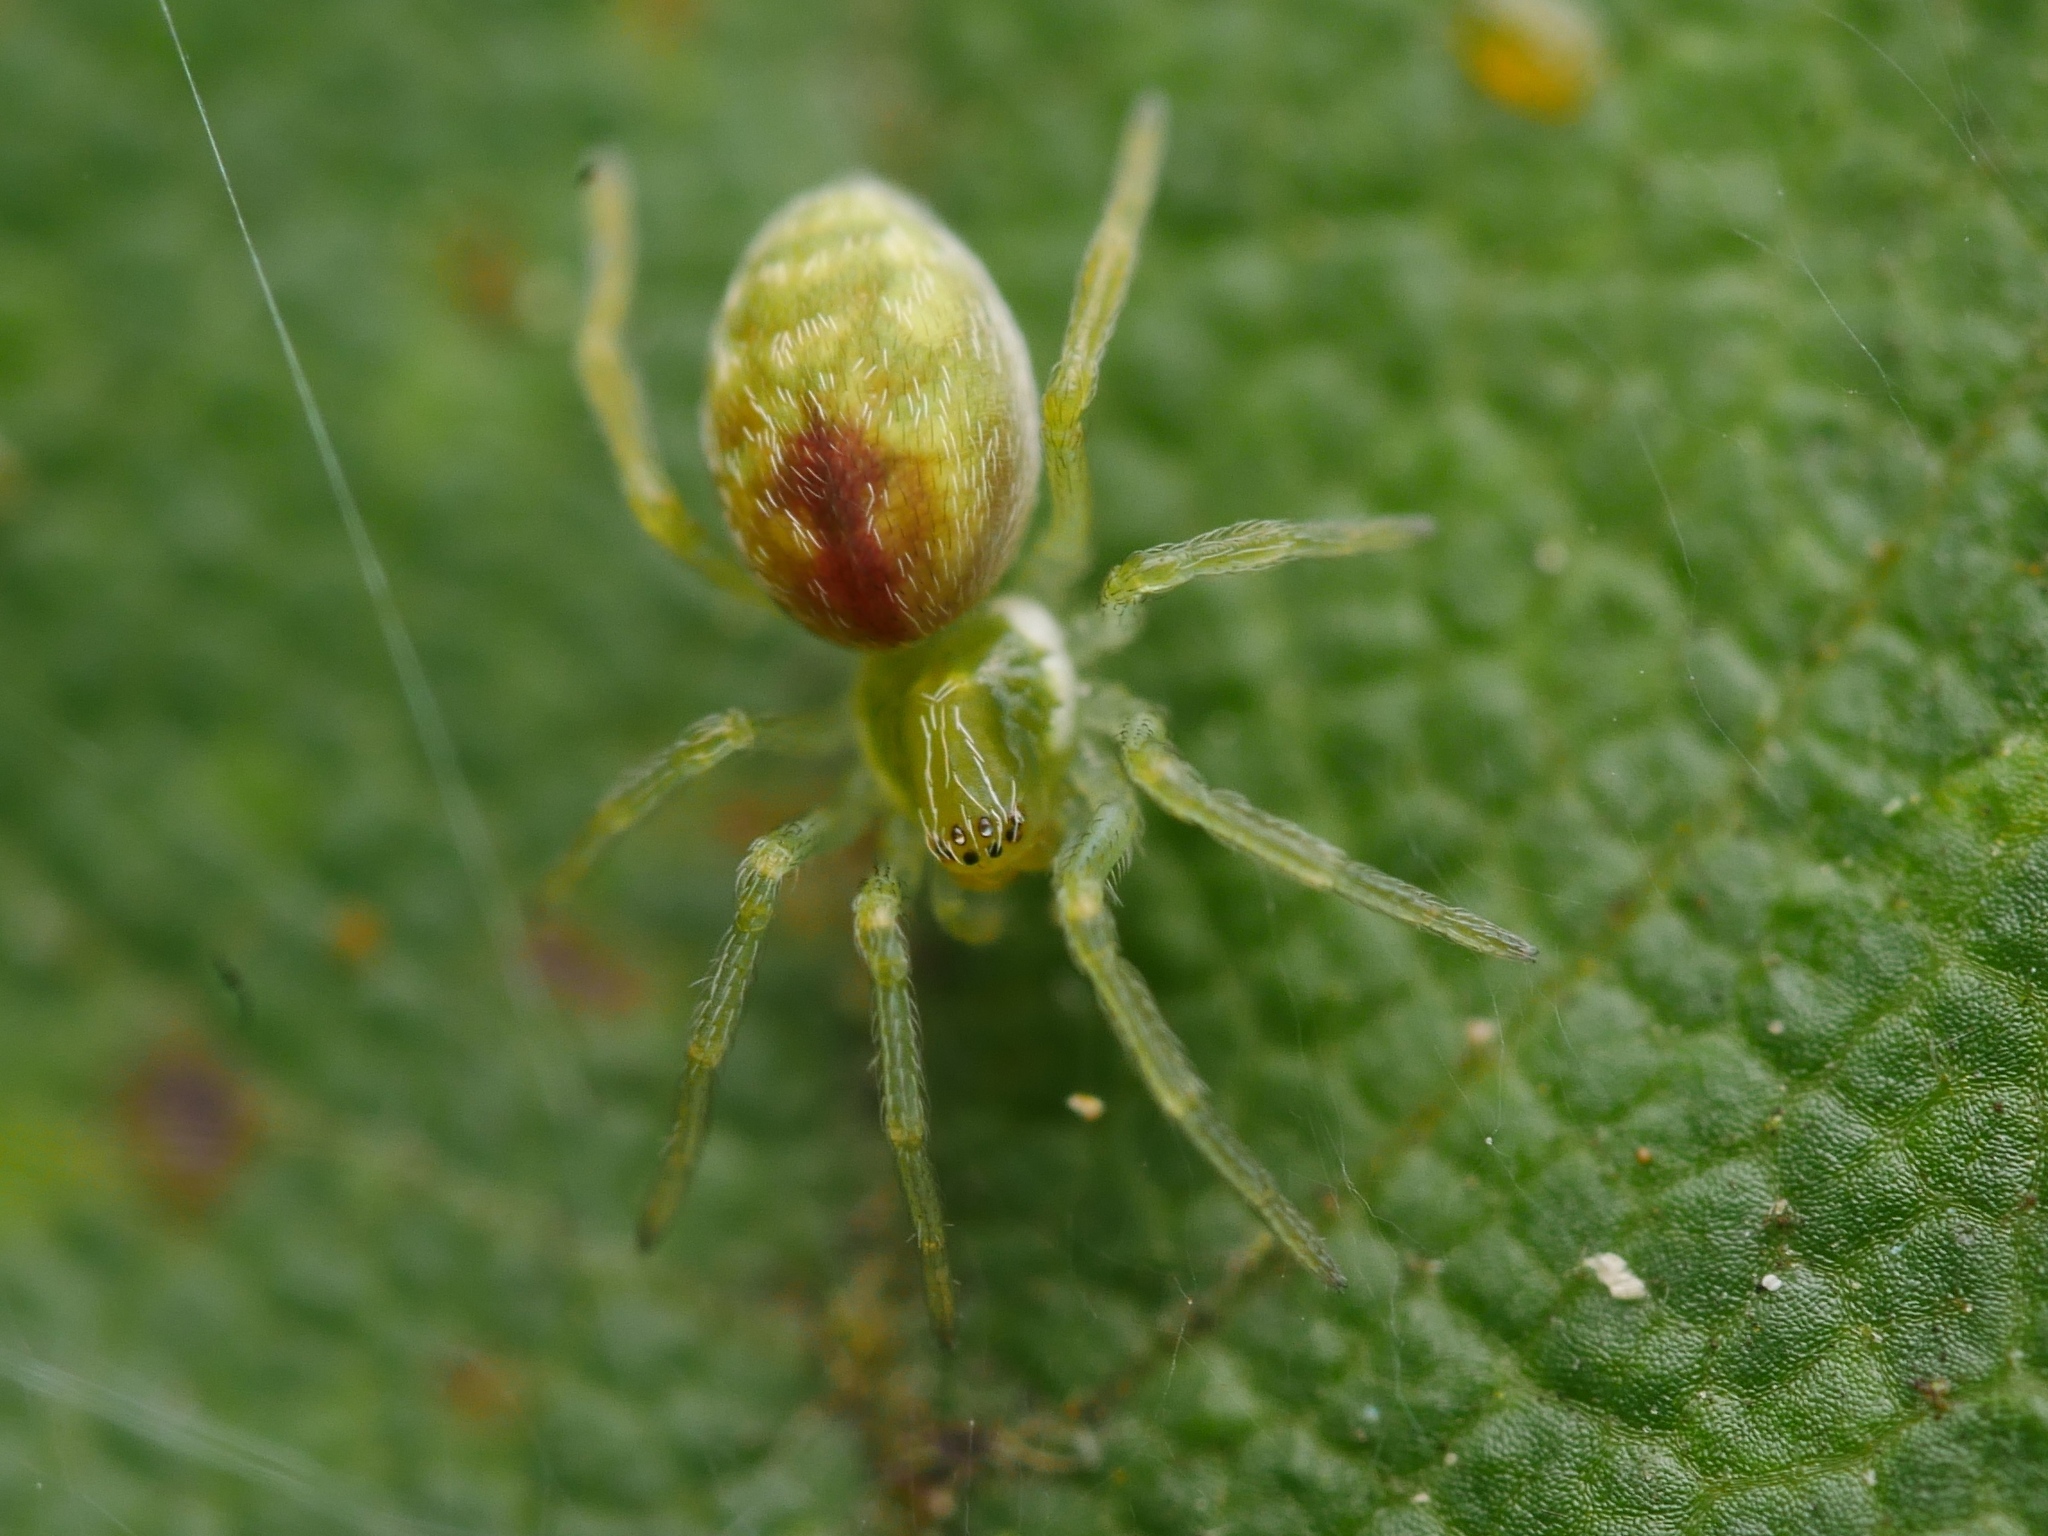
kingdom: Animalia
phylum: Arthropoda
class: Arachnida
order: Araneae
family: Dictynidae
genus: Nigma
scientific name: Nigma walckenaeri
